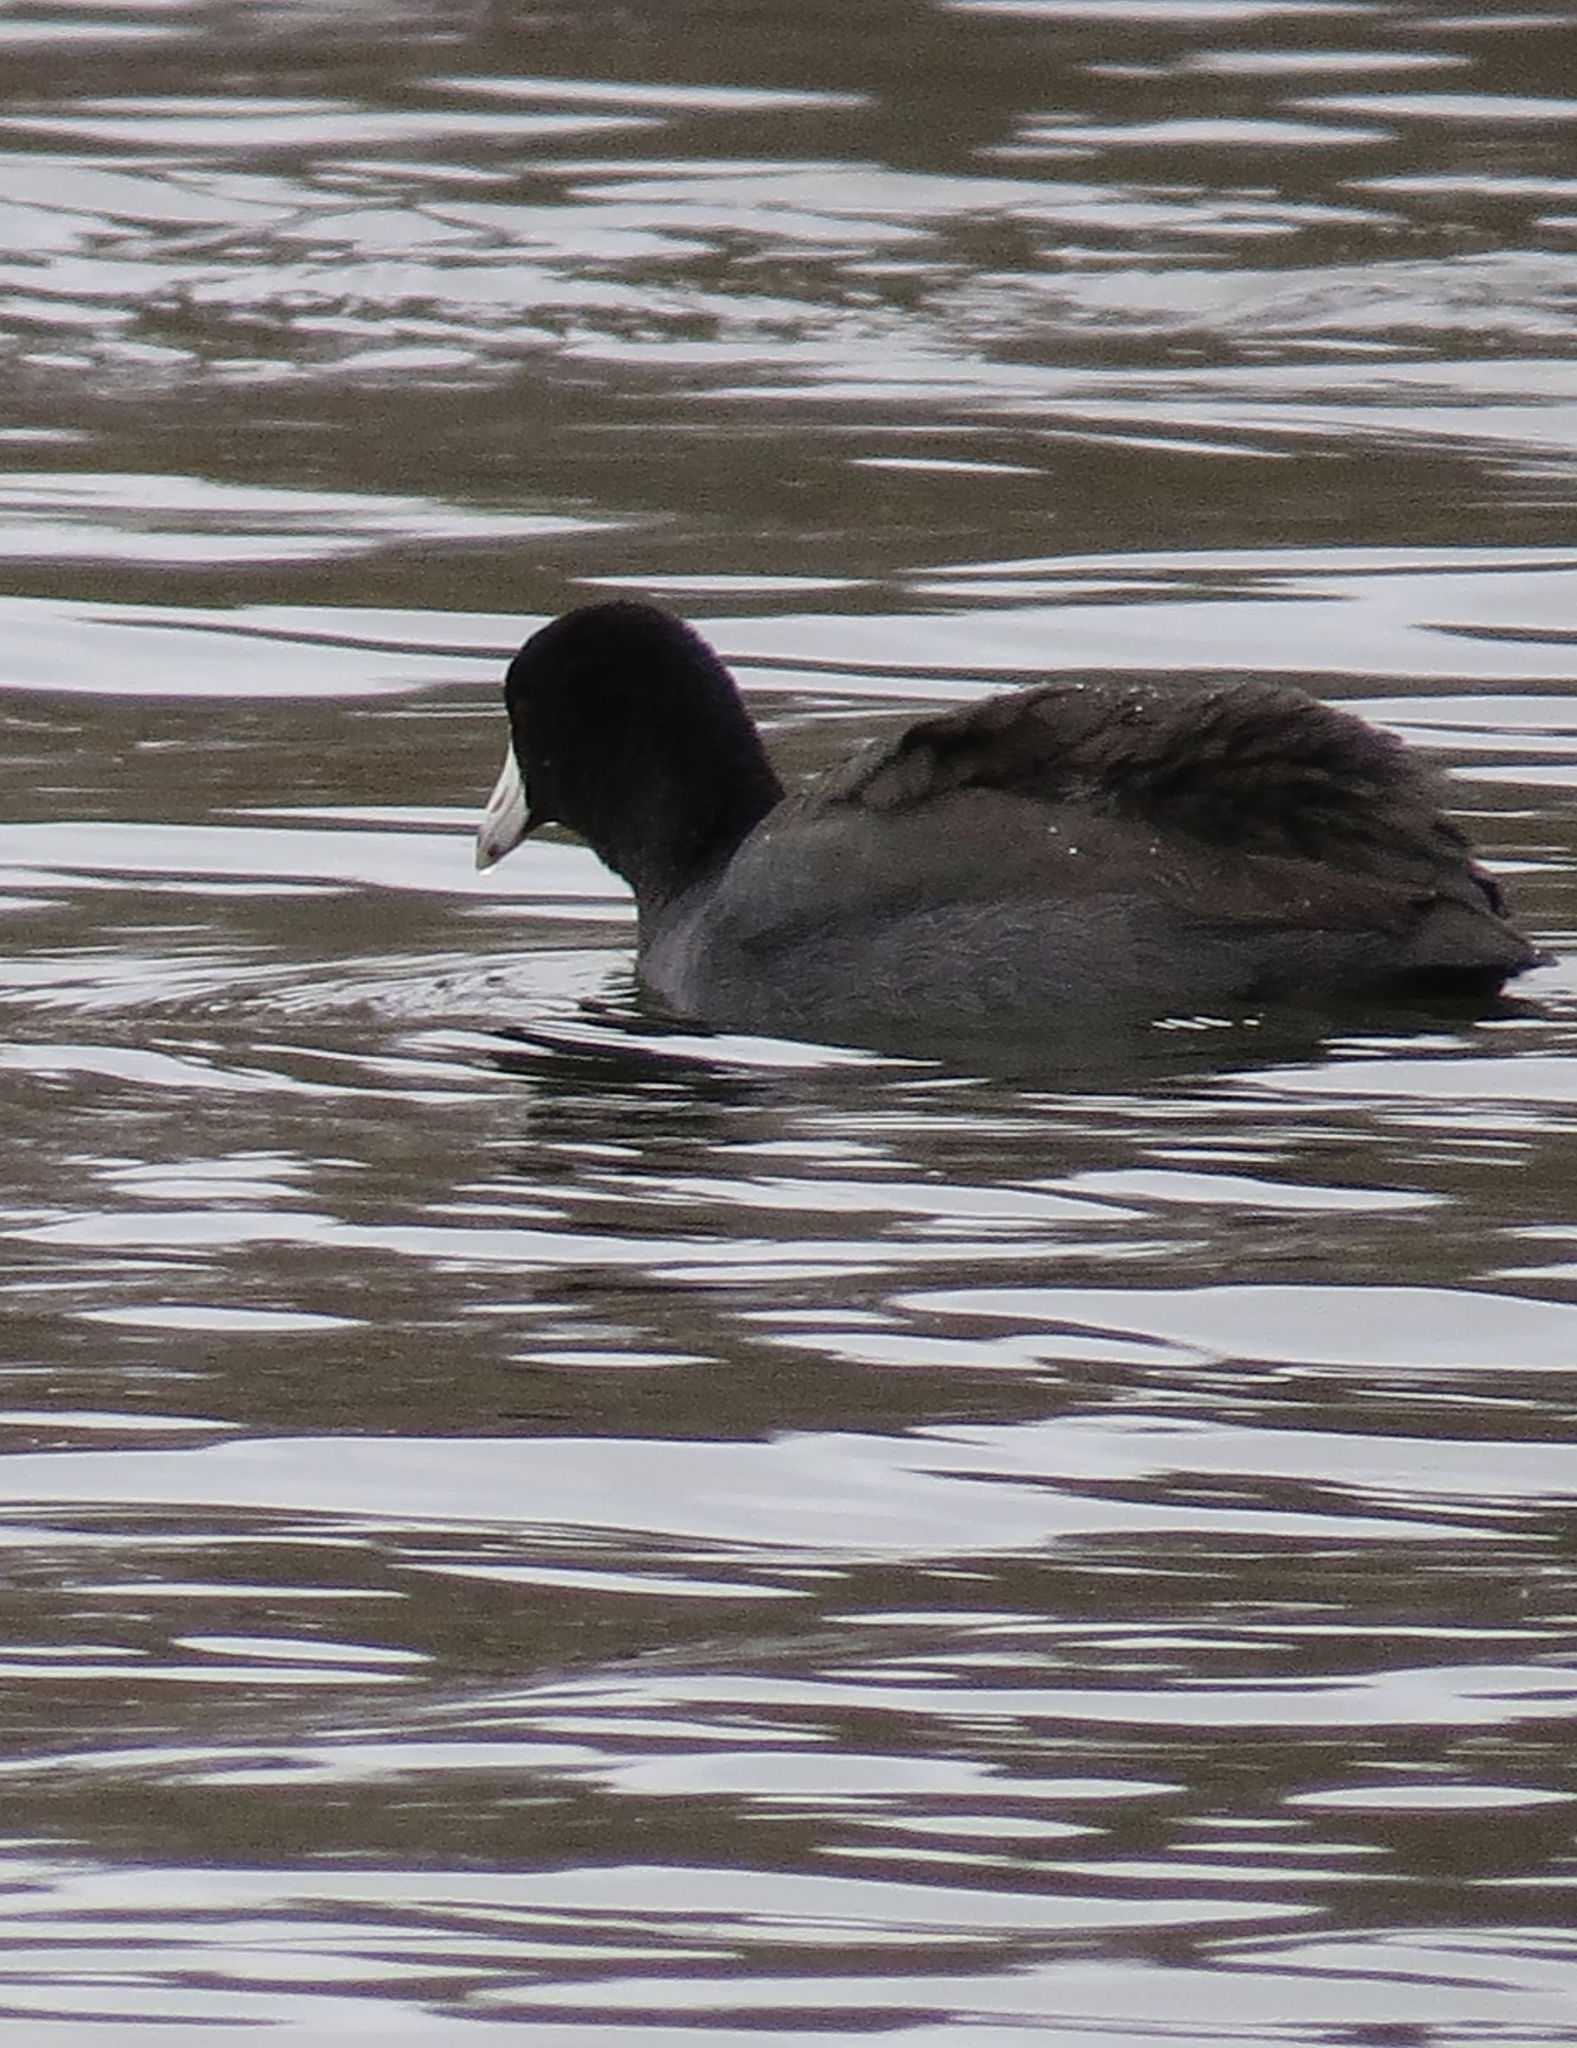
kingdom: Animalia
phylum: Chordata
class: Aves
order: Gruiformes
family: Rallidae
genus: Fulica
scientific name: Fulica americana
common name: American coot
